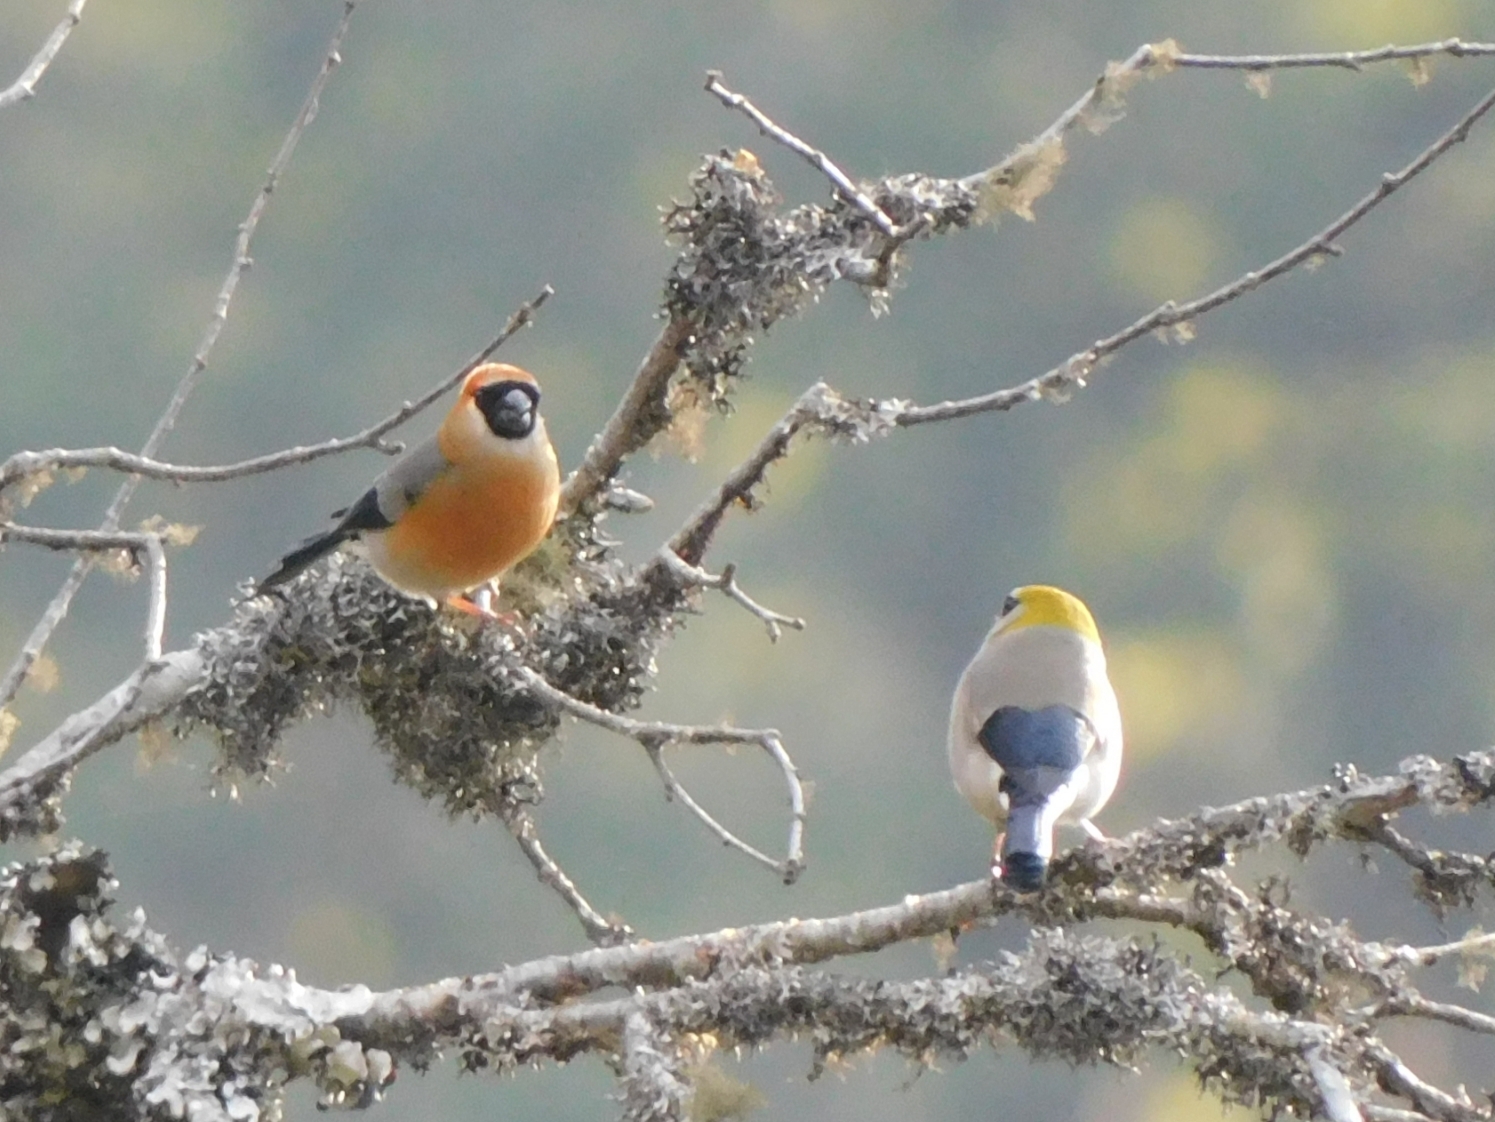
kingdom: Animalia
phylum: Chordata
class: Aves
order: Passeriformes
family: Fringillidae
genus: Pyrrhula
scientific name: Pyrrhula erythrocephala
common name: Red-headed bullfinch
